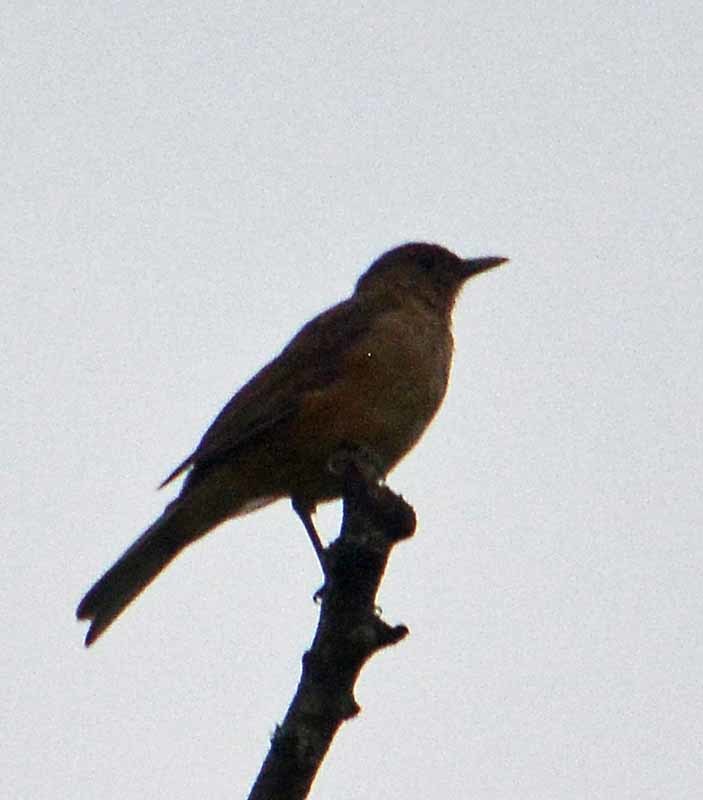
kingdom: Animalia
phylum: Chordata
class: Aves
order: Passeriformes
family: Turdidae
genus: Turdus
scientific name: Turdus grayi
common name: Clay-colored thrush
